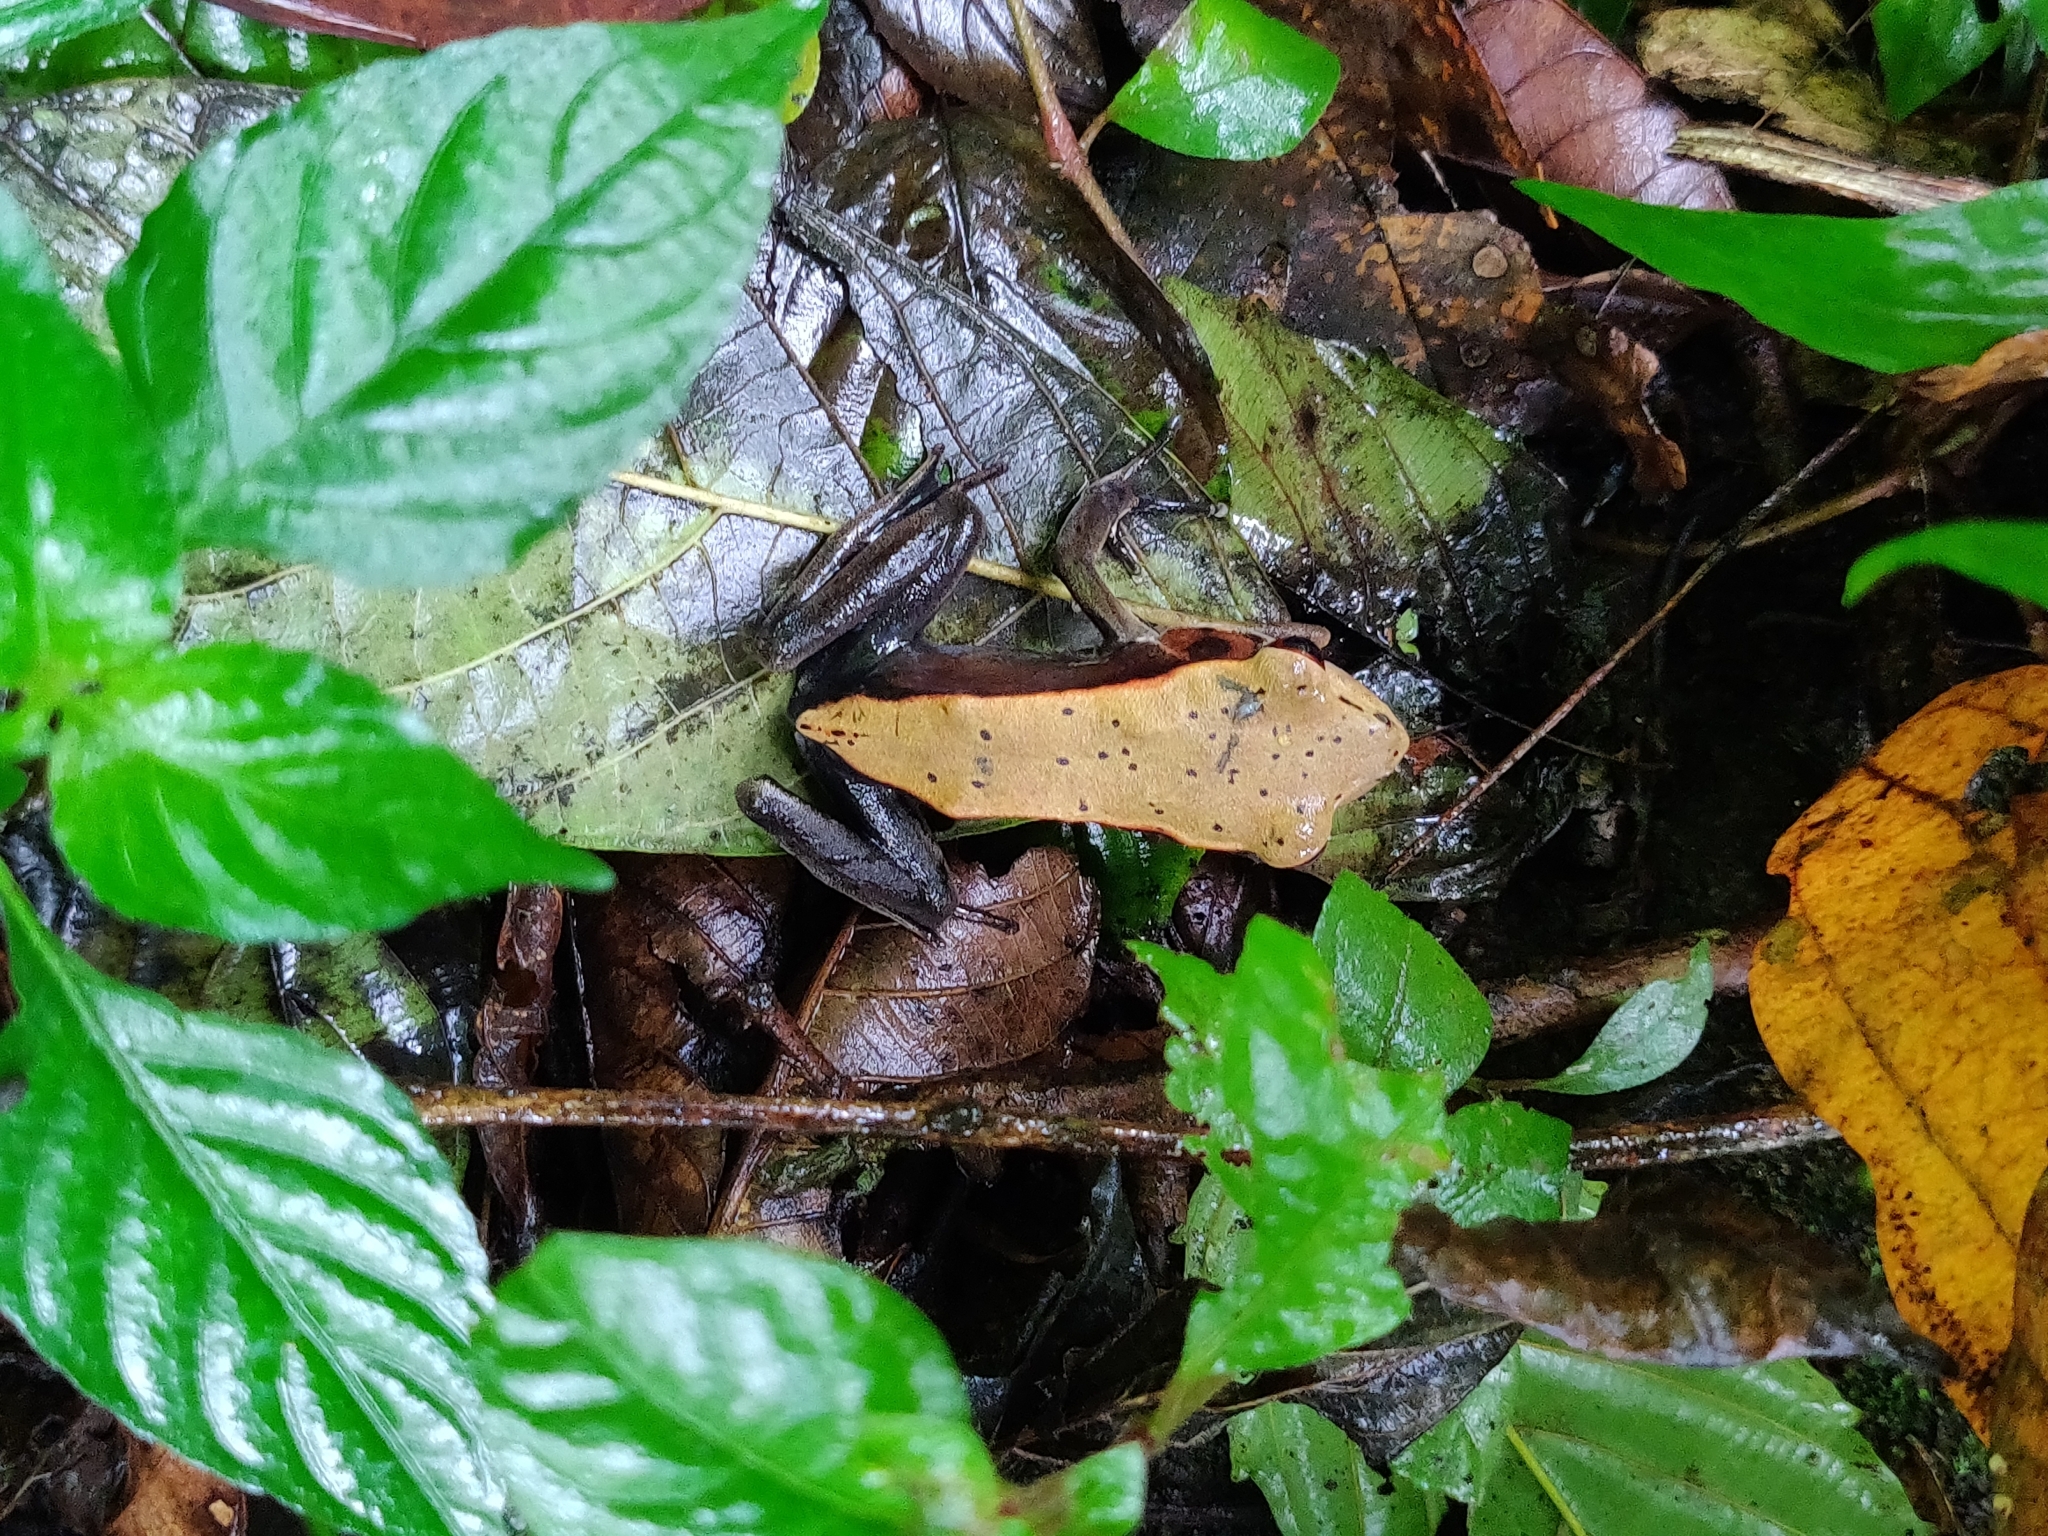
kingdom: Animalia
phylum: Chordata
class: Amphibia
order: Anura
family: Ranidae
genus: Clinotarsus
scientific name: Clinotarsus curtipes
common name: Bicoloured frog
